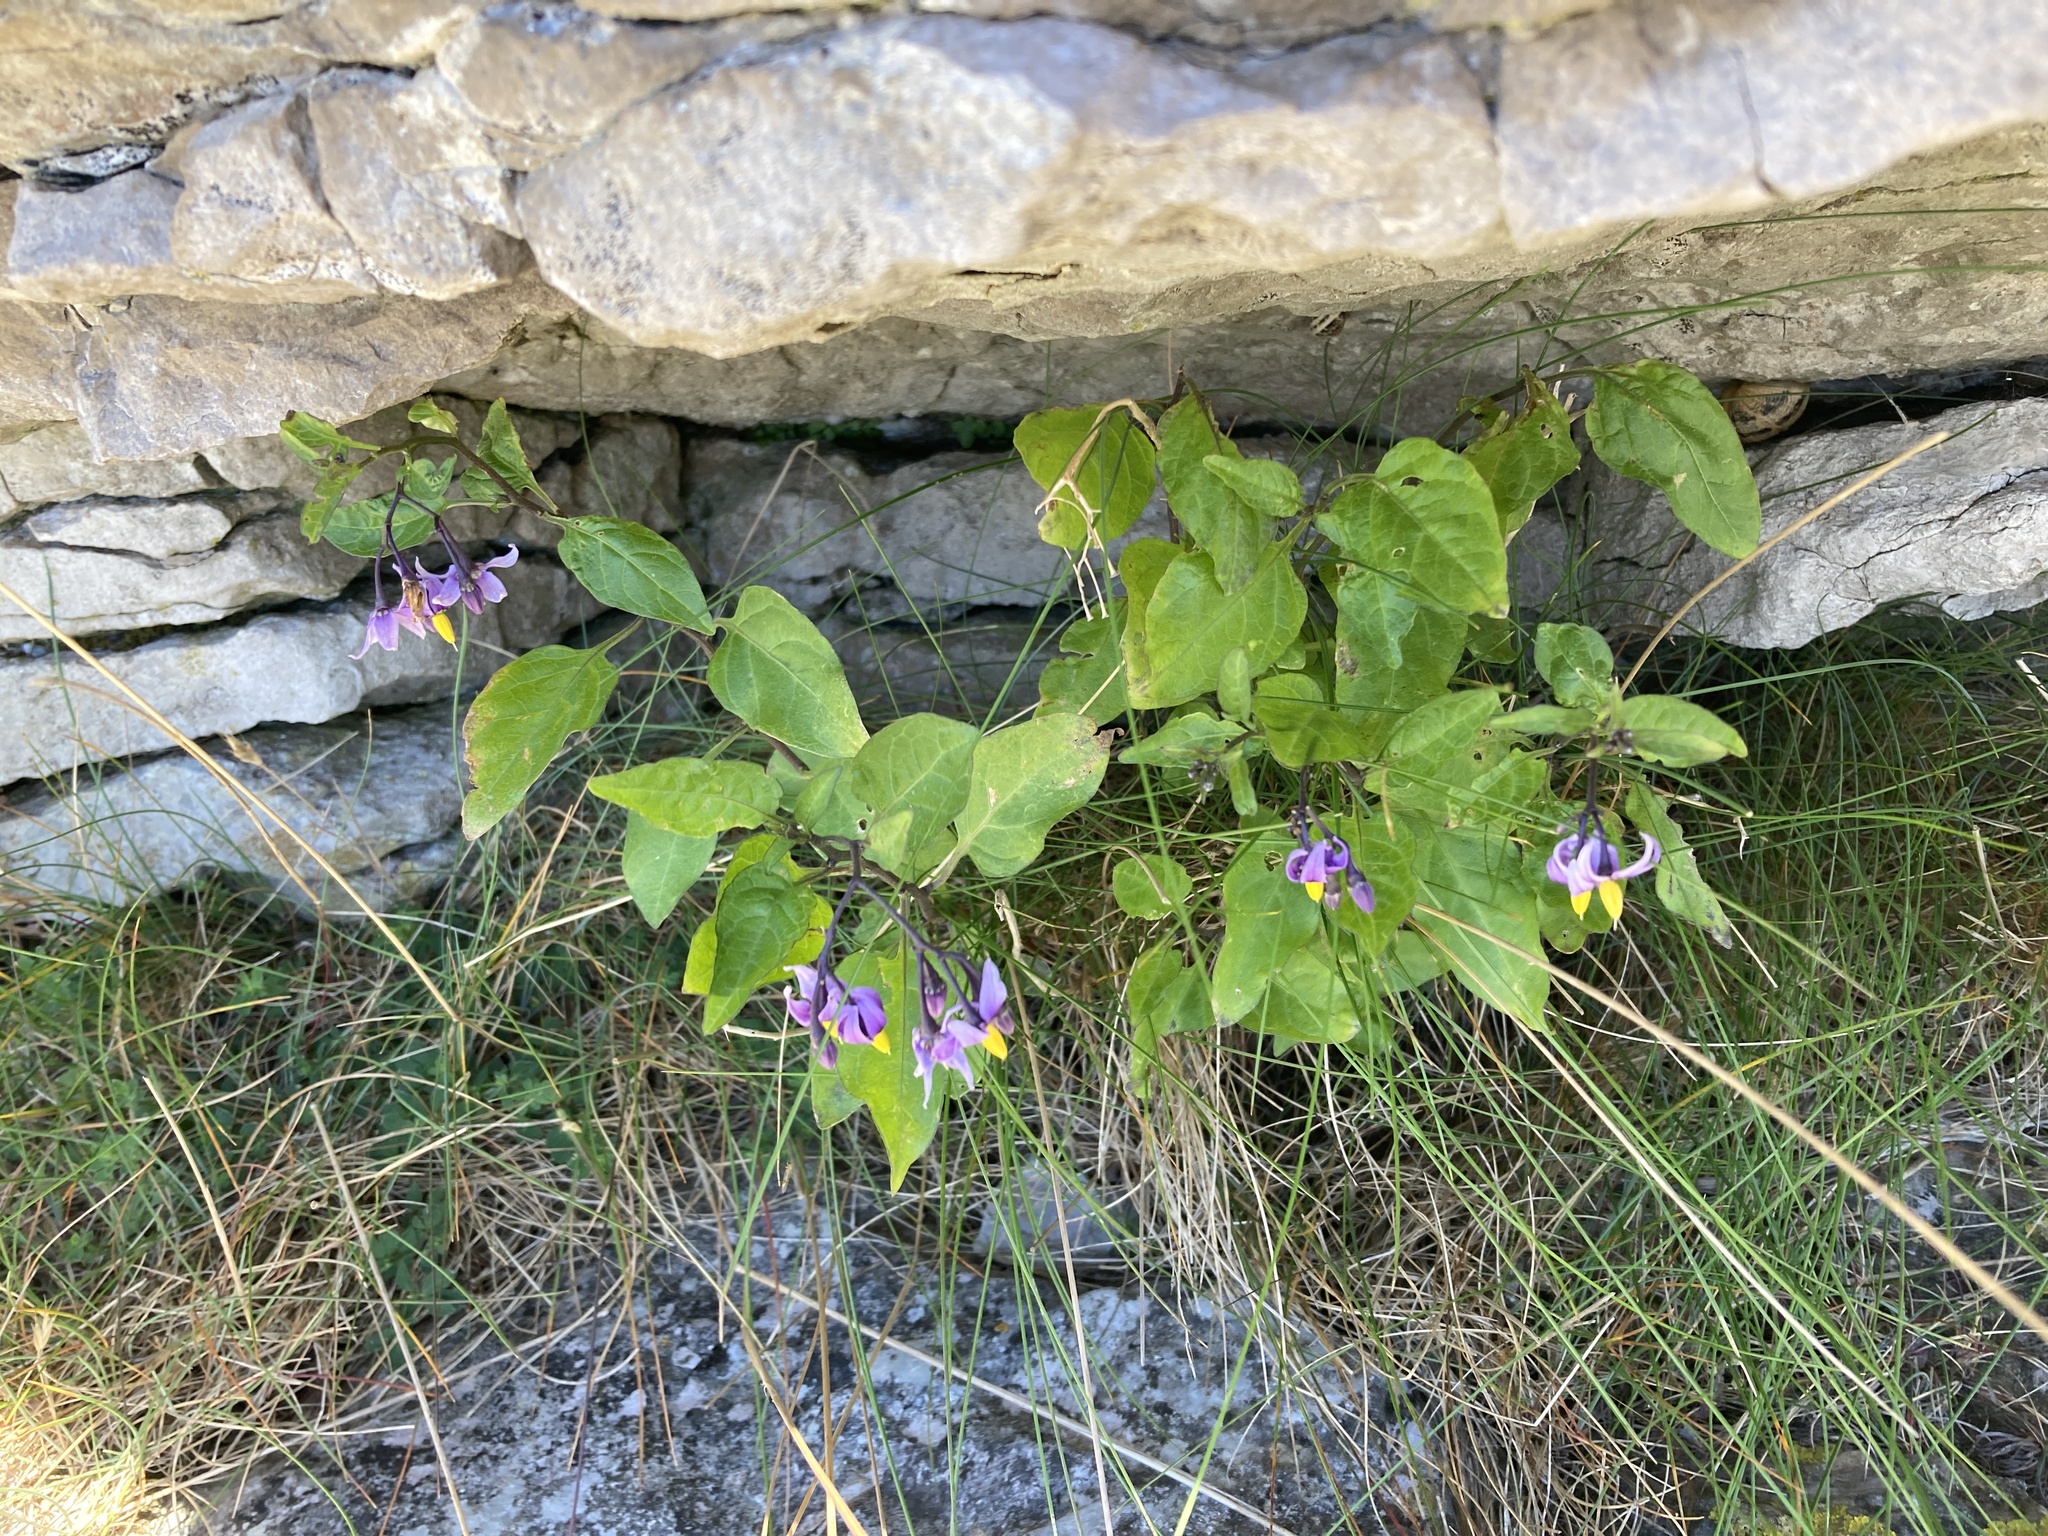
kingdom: Plantae
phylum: Tracheophyta
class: Magnoliopsida
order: Solanales
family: Solanaceae
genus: Solanum
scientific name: Solanum dulcamara
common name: Climbing nightshade
